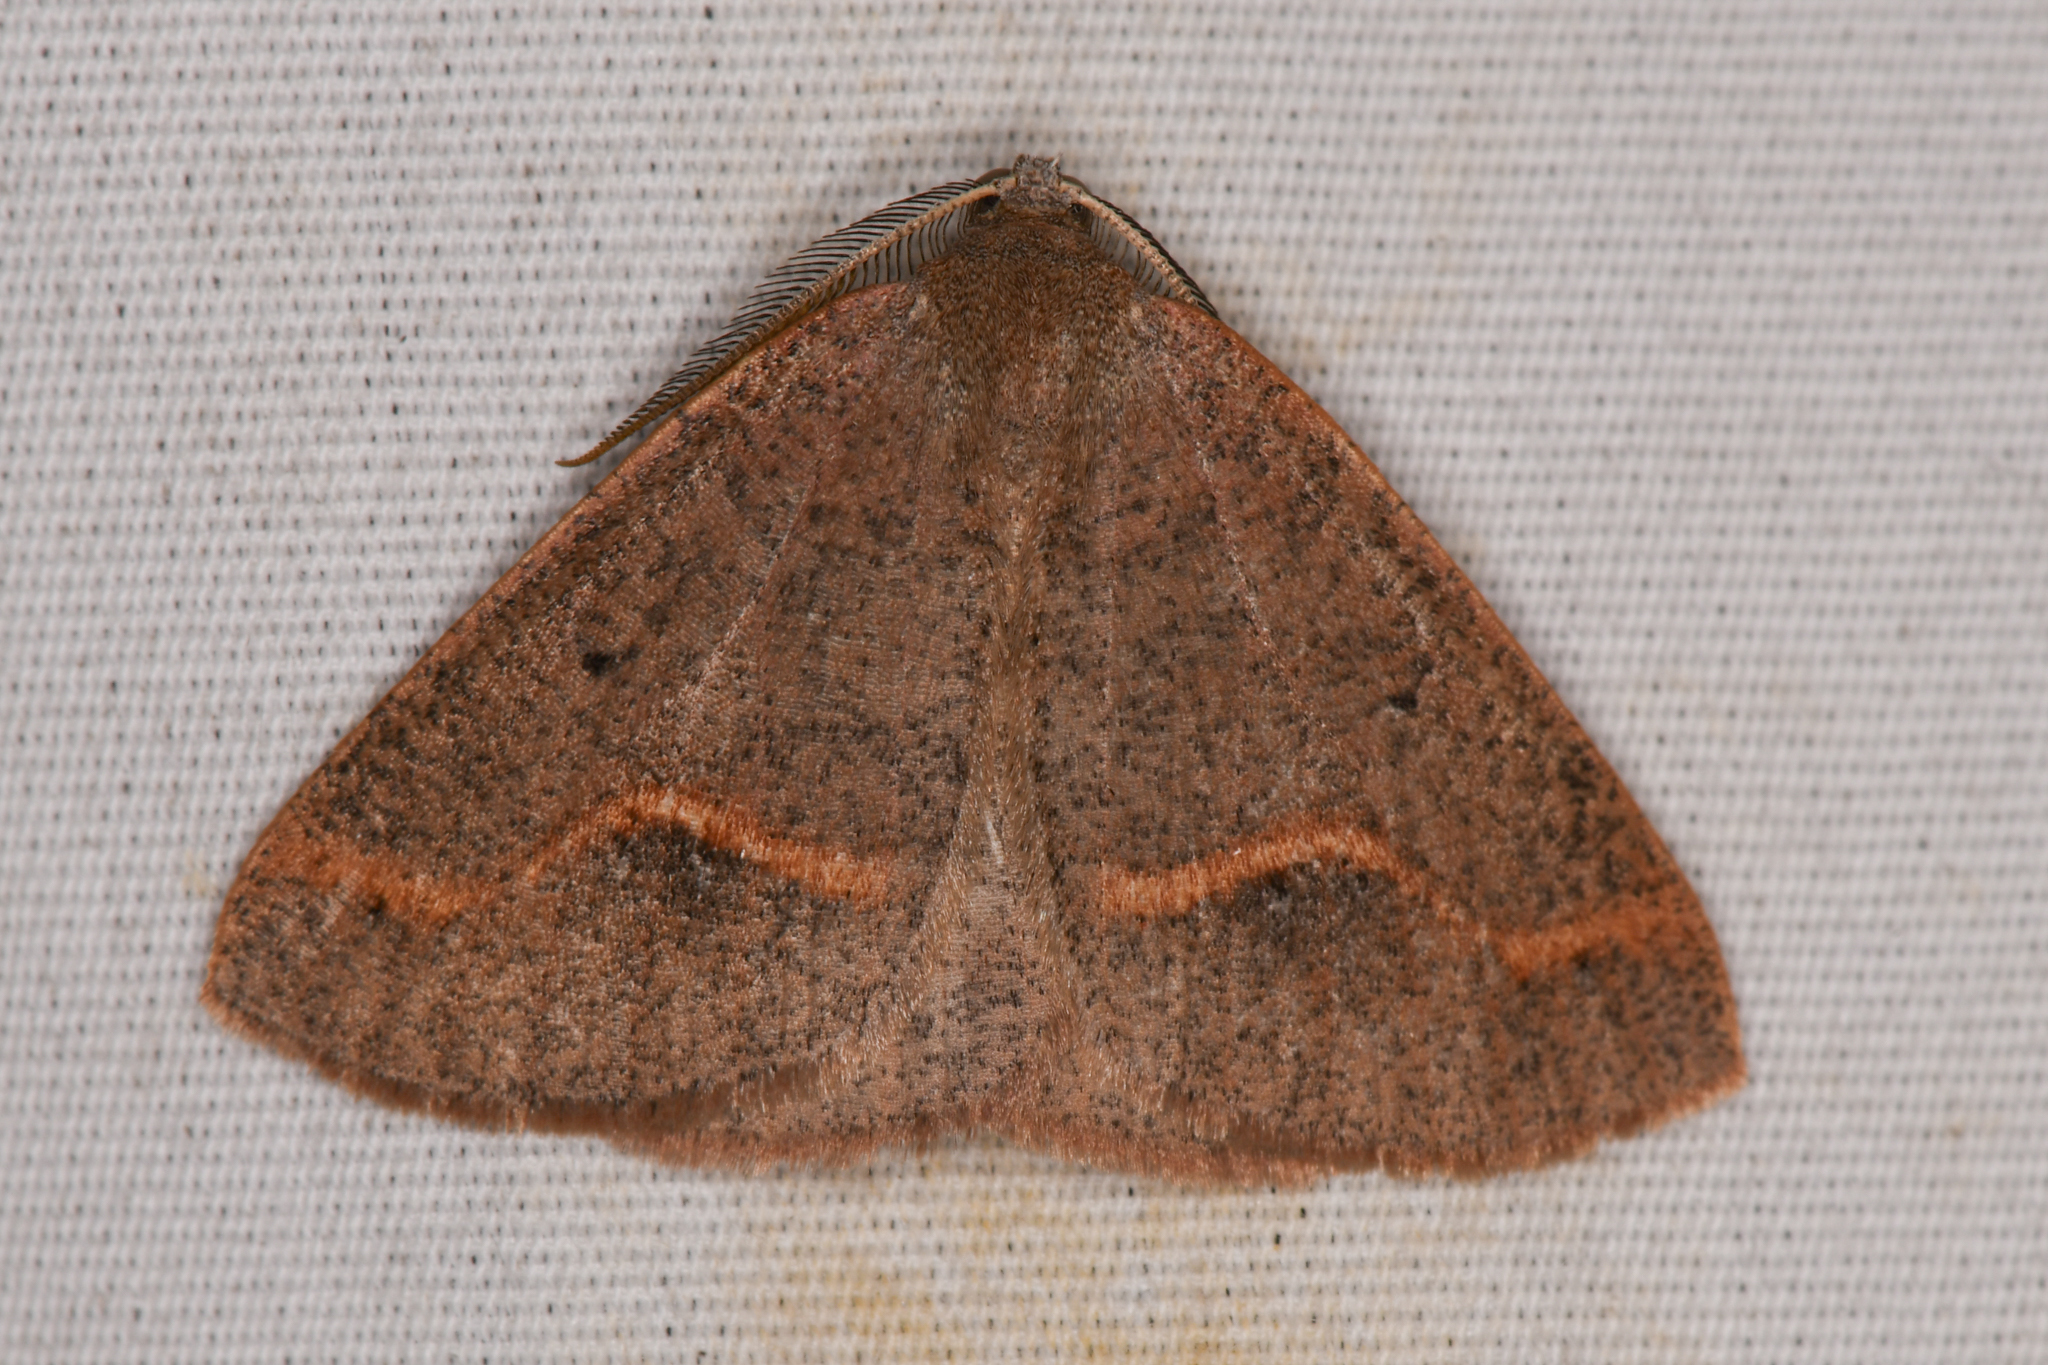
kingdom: Animalia
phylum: Arthropoda
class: Insecta
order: Lepidoptera
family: Geometridae
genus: Drepanulatrix
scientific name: Drepanulatrix unicalcararia
